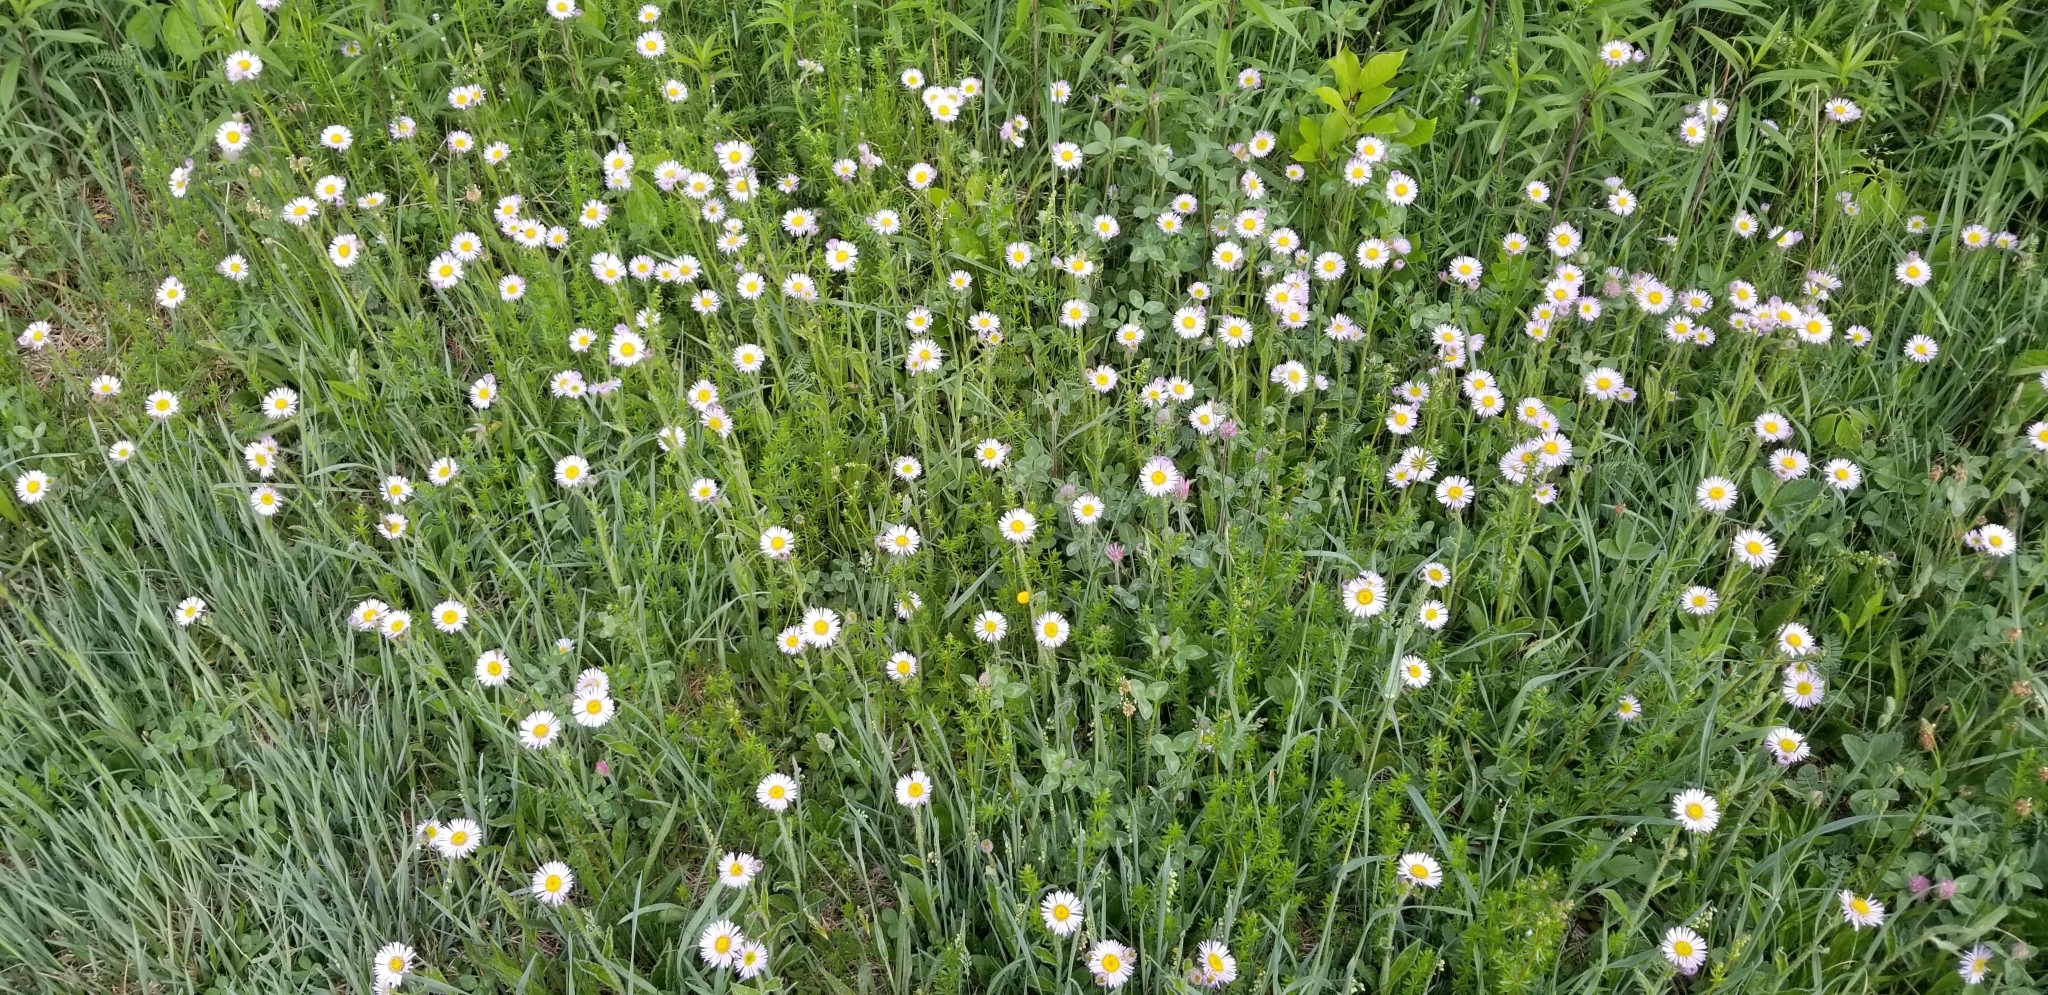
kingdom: Plantae
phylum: Tracheophyta
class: Magnoliopsida
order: Asterales
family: Asteraceae
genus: Erigeron
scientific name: Erigeron pulchellus
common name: Hairy fleabane
